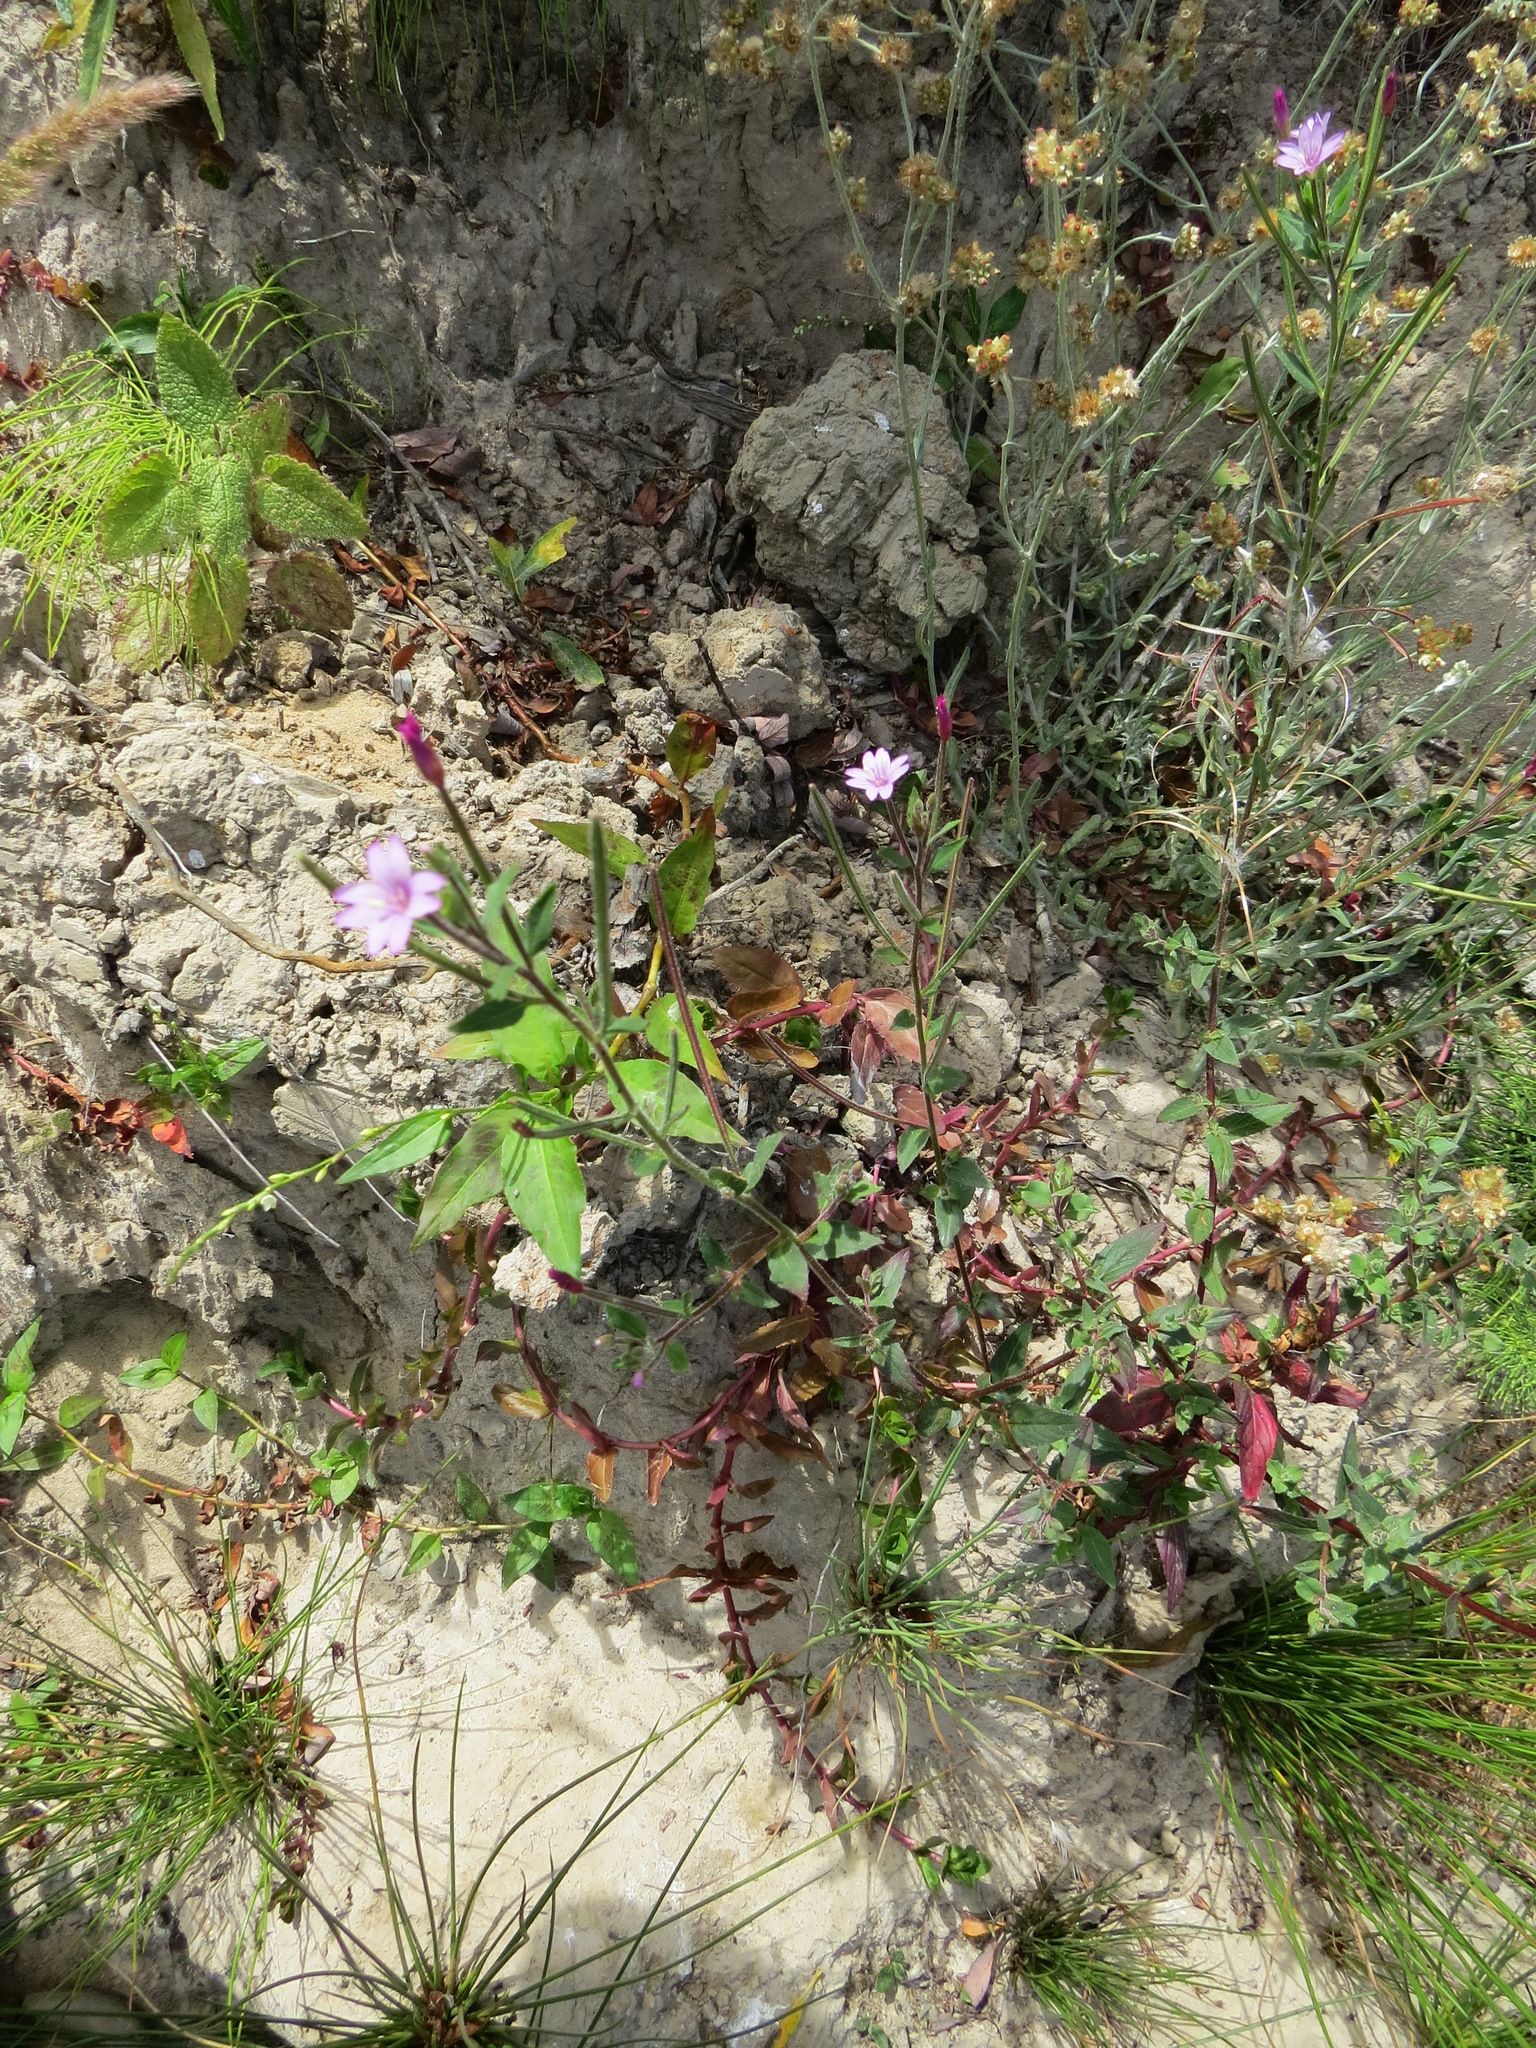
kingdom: Plantae
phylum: Tracheophyta
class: Magnoliopsida
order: Myrtales
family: Onagraceae
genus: Epilobium
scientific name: Epilobium ciliatum
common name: American willowherb
